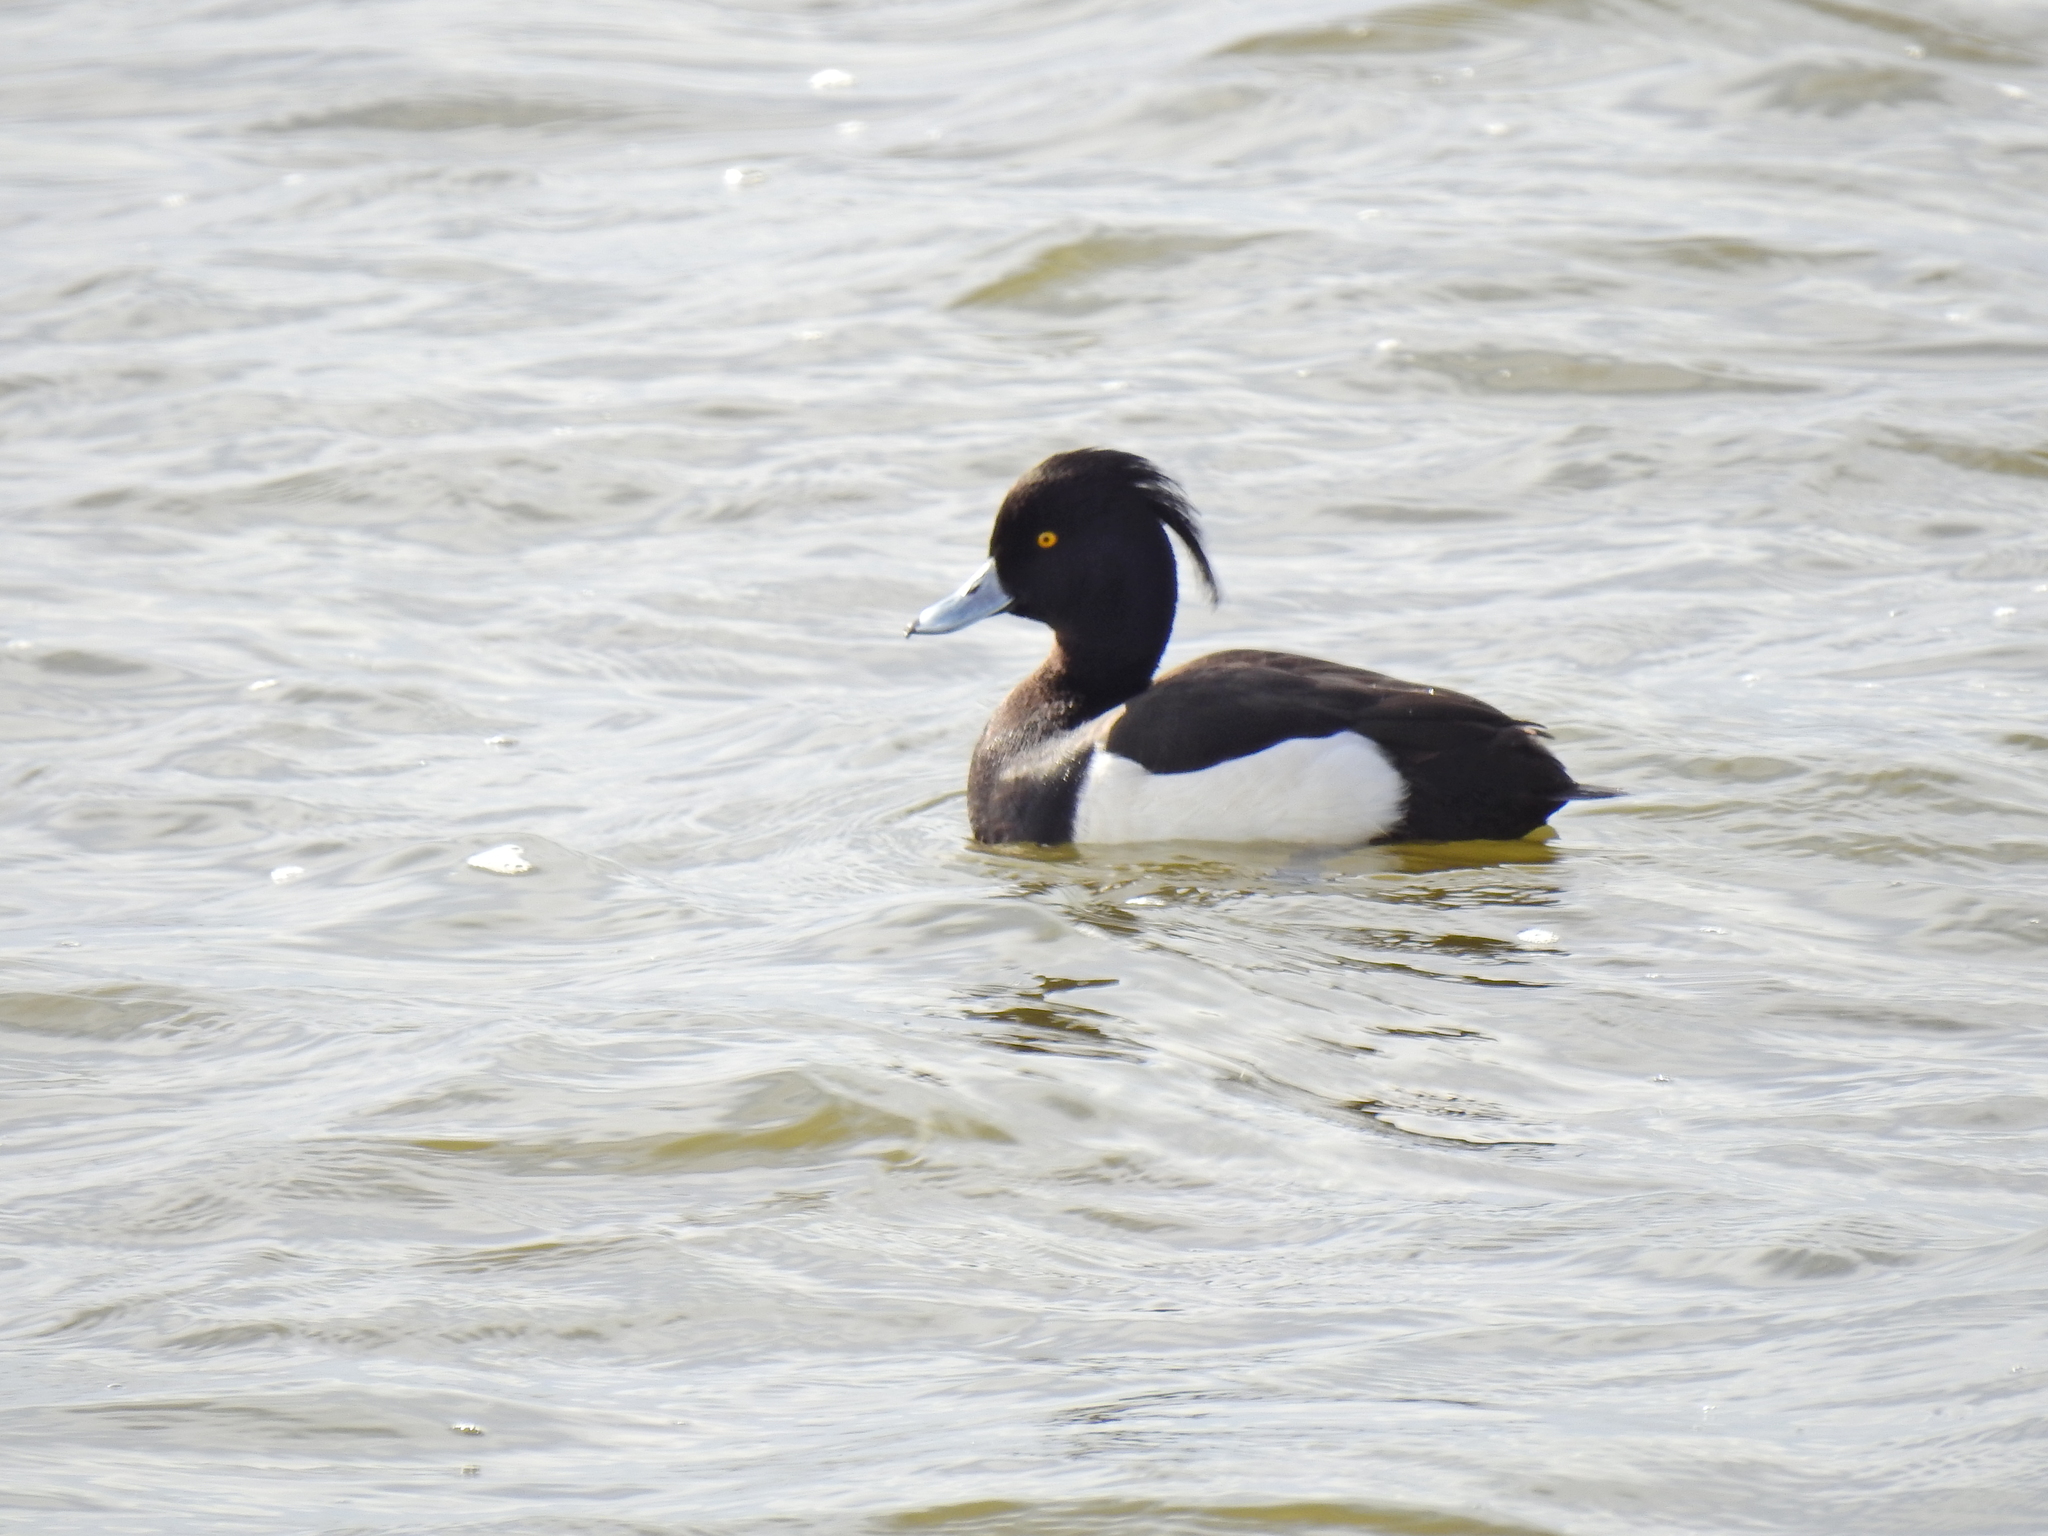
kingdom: Animalia
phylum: Chordata
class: Aves
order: Anseriformes
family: Anatidae
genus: Aythya
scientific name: Aythya fuligula
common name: Tufted duck
